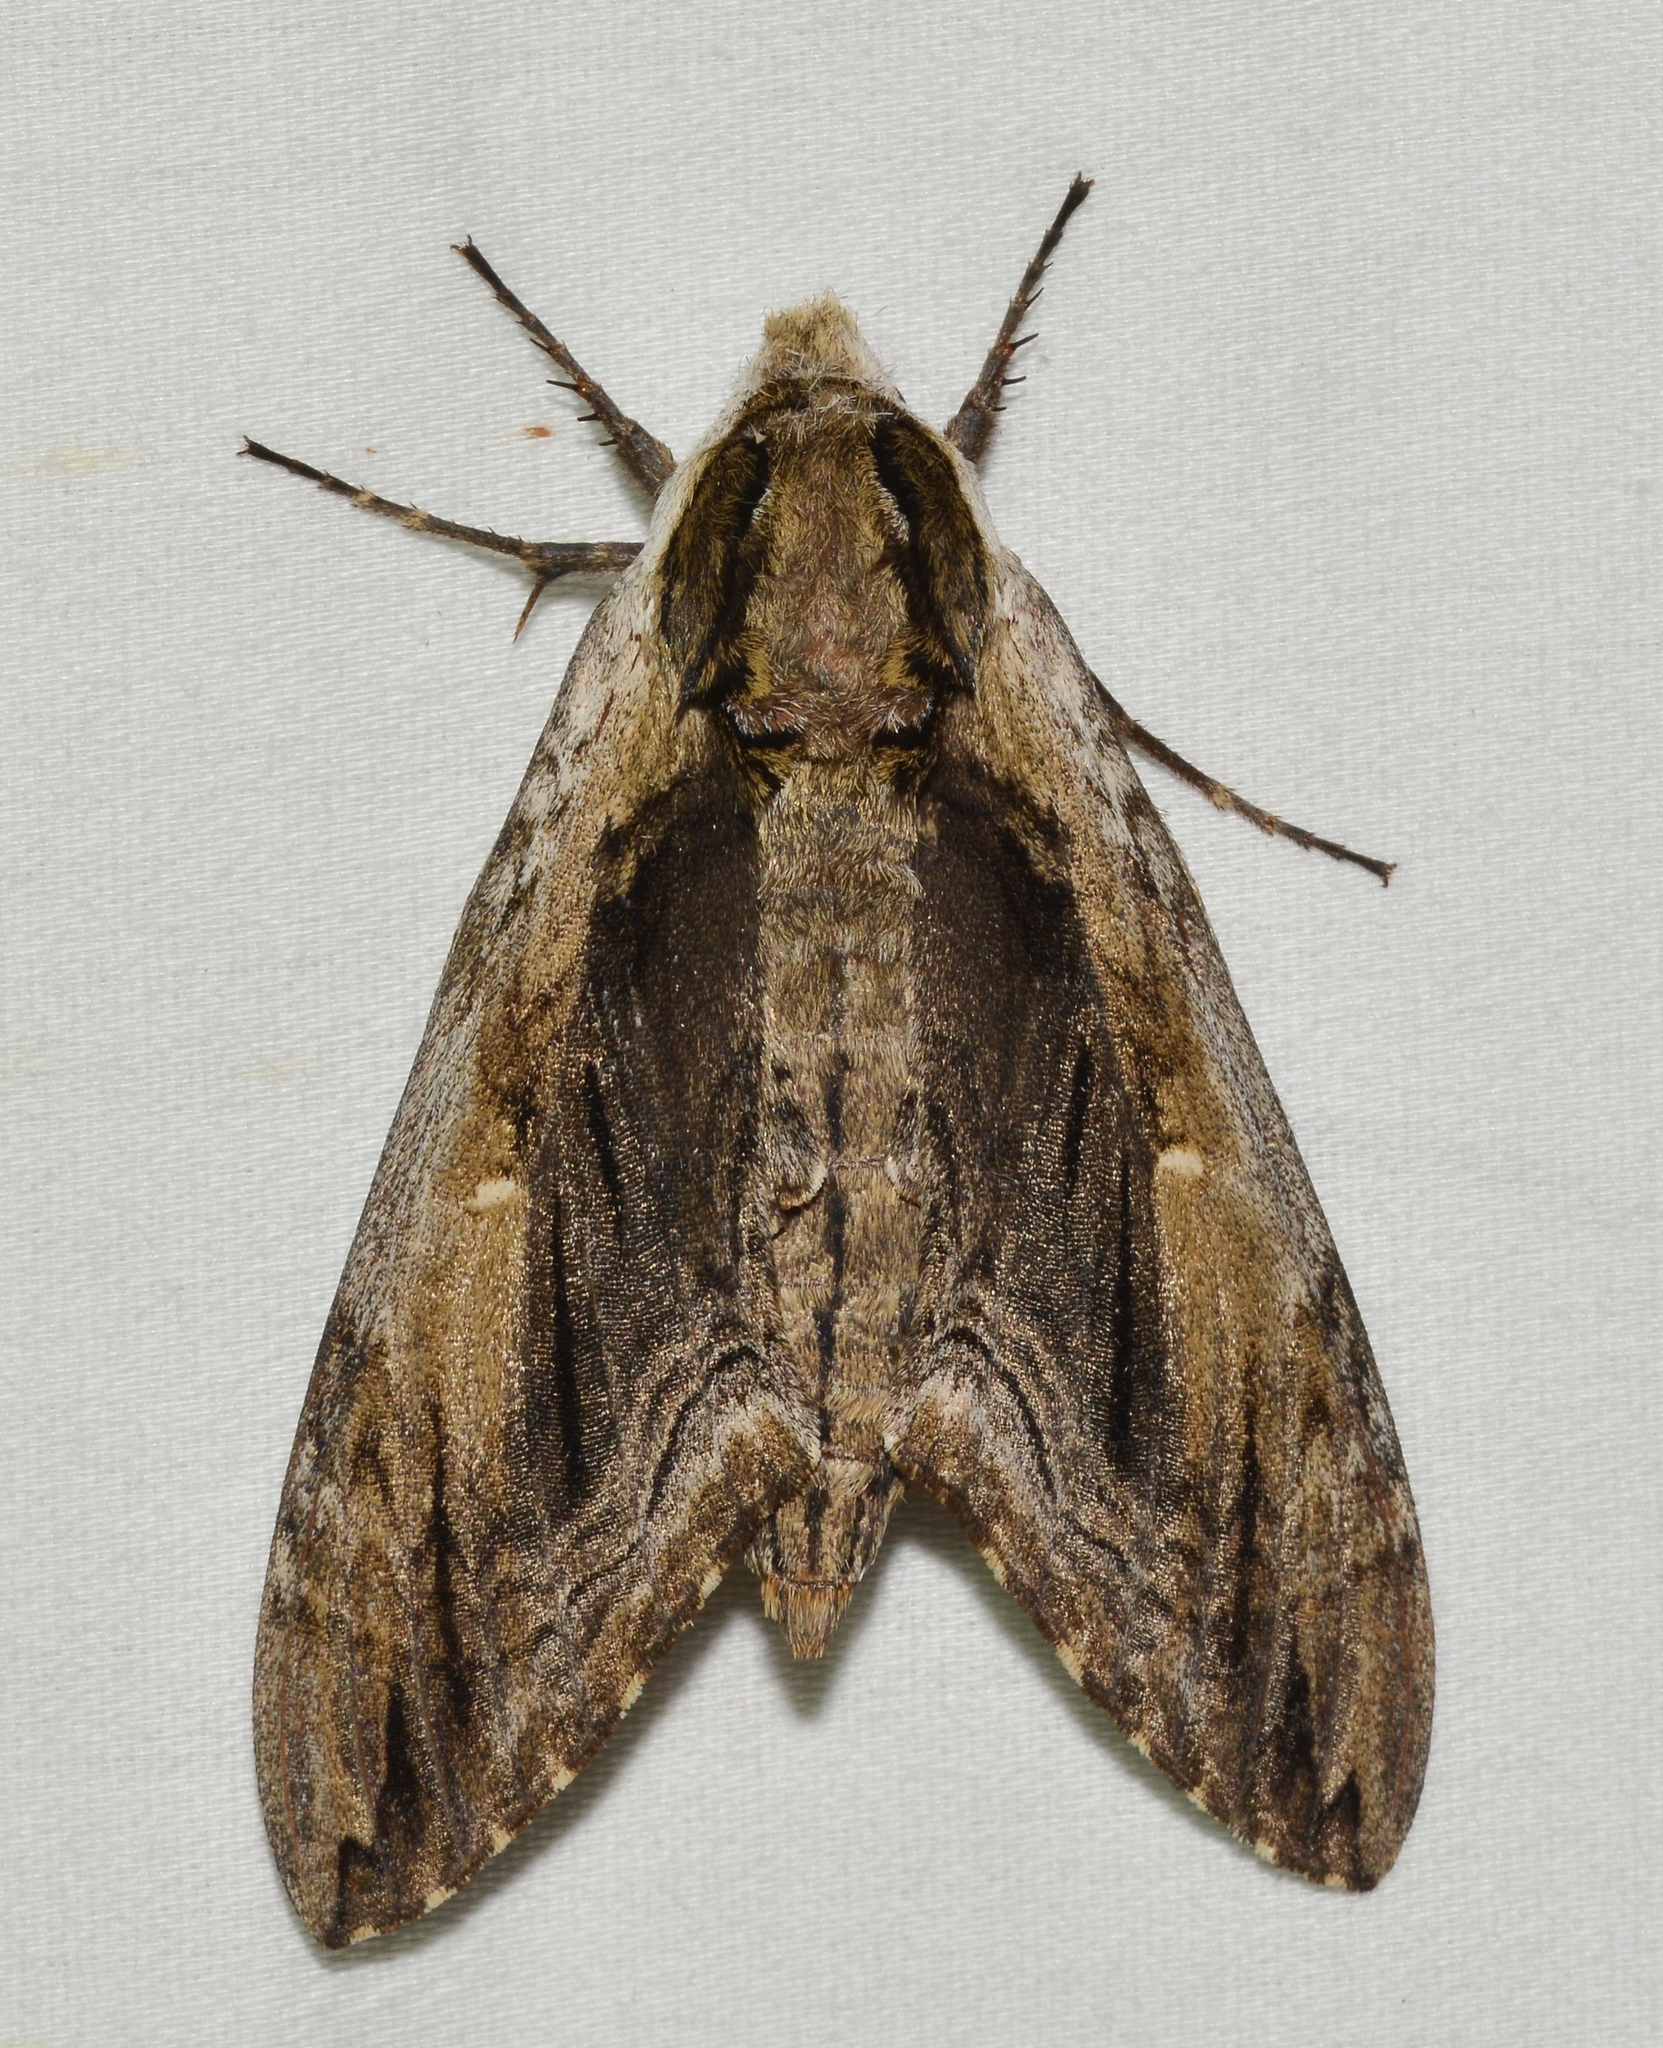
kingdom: Animalia
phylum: Arthropoda
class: Insecta
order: Lepidoptera
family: Sphingidae
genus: Ceratomia
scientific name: Ceratomia amyntor
